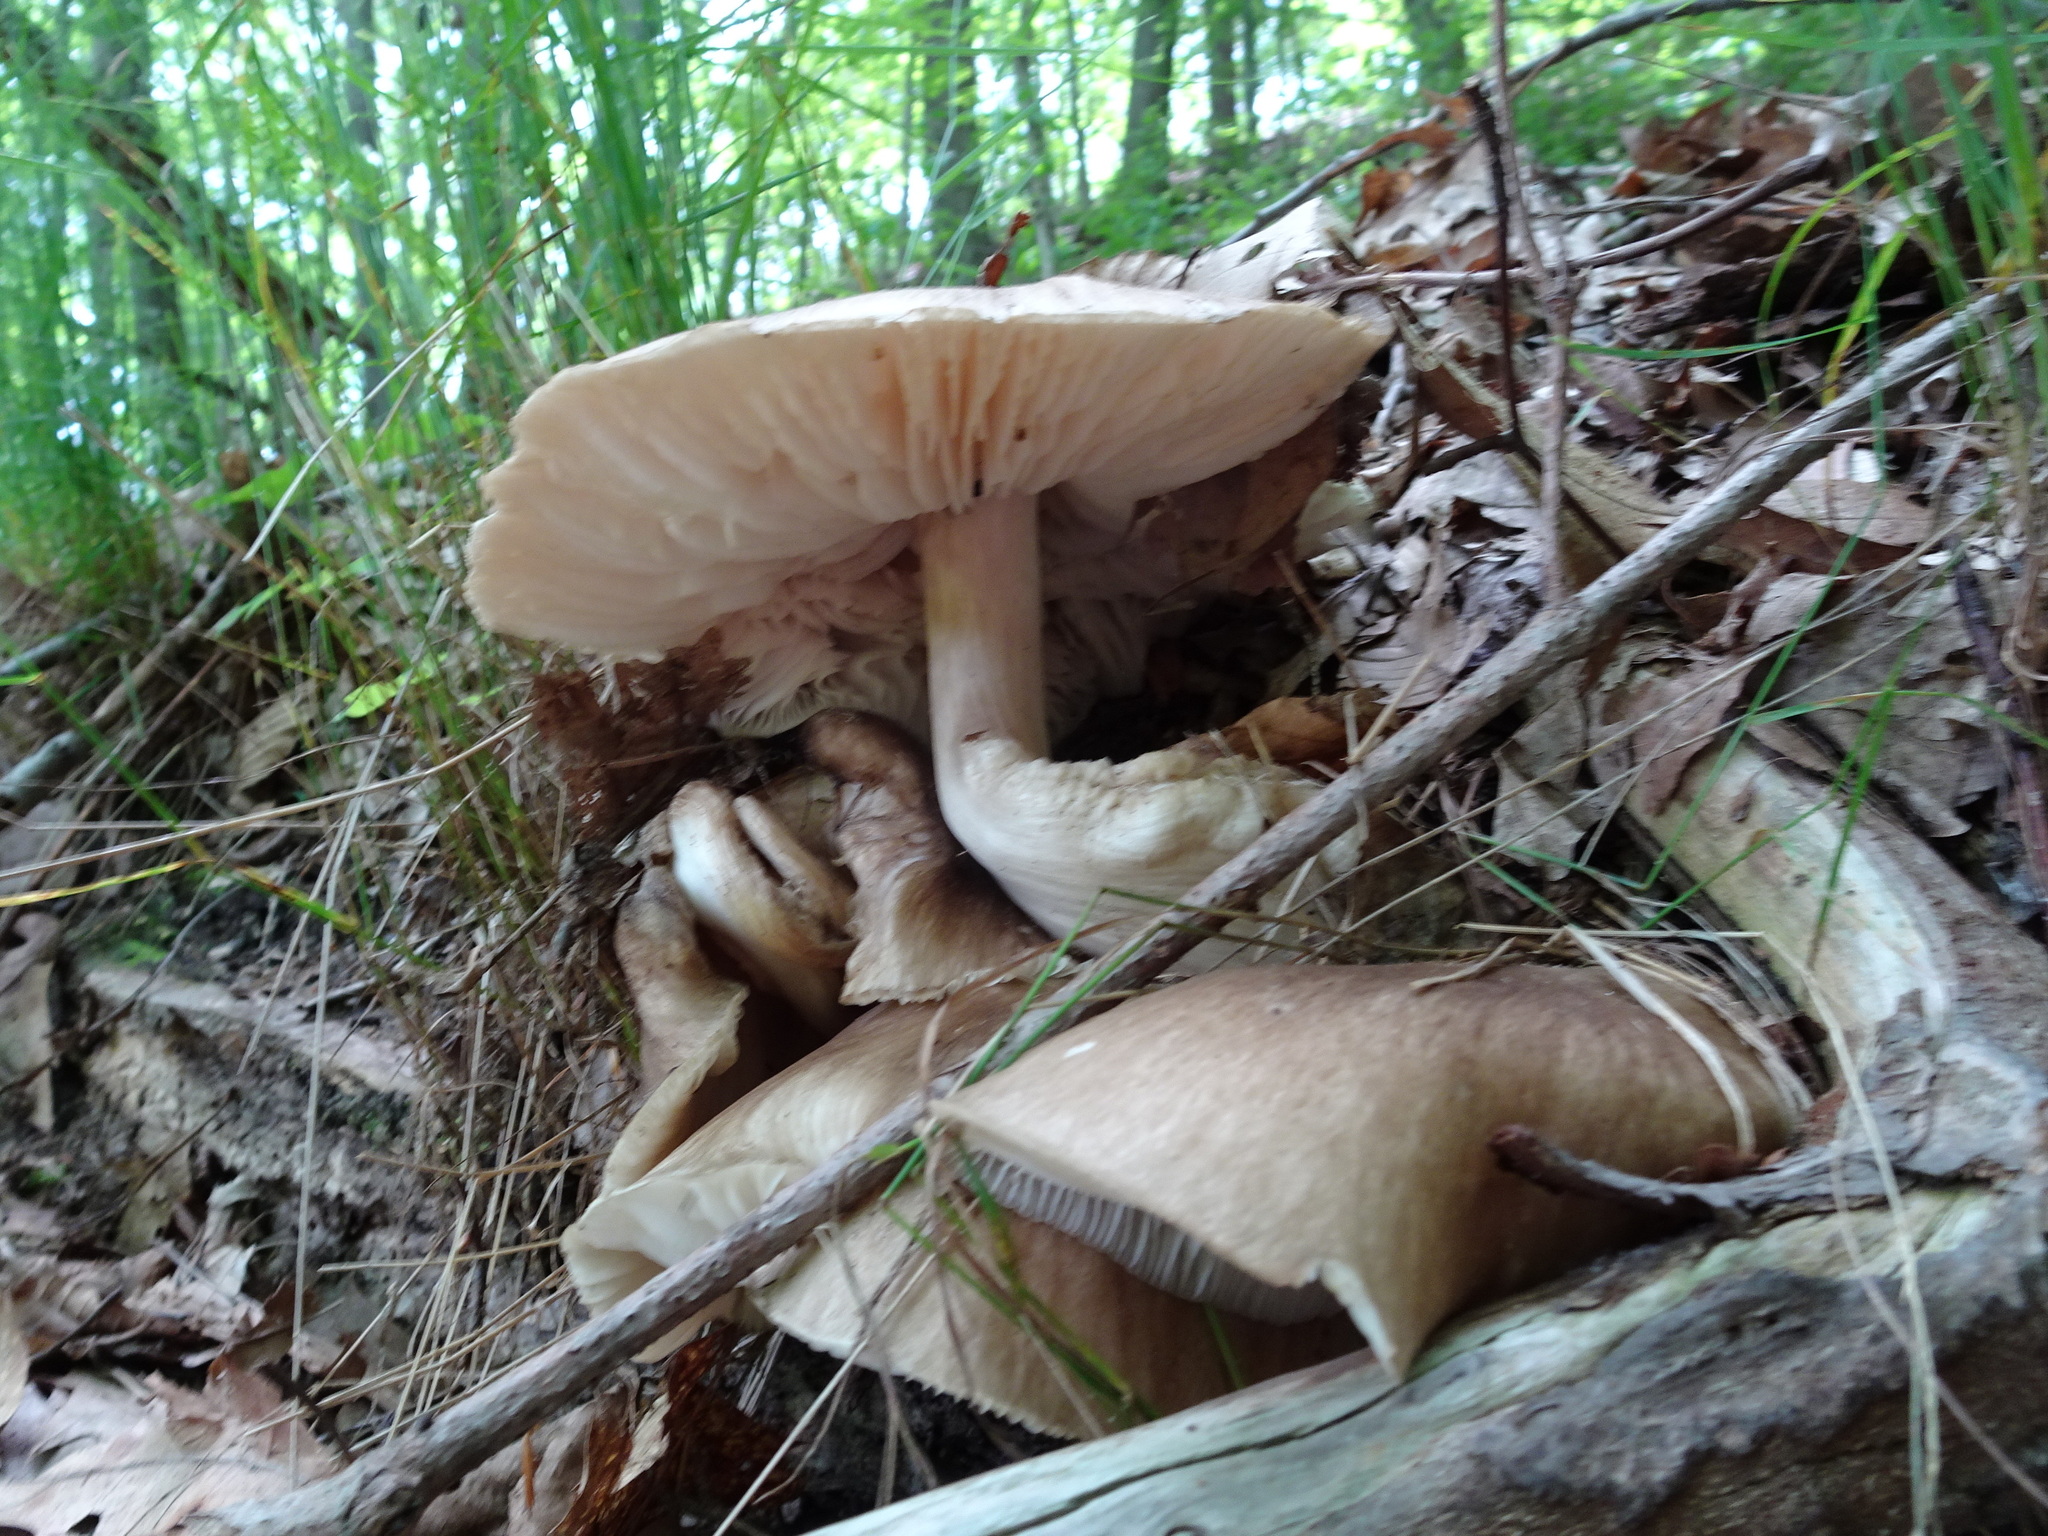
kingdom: Fungi
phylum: Basidiomycota
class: Agaricomycetes
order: Agaricales
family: Tricholomataceae
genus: Megacollybia
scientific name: Megacollybia rodmanii
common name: Eastern american platterful mushroom
